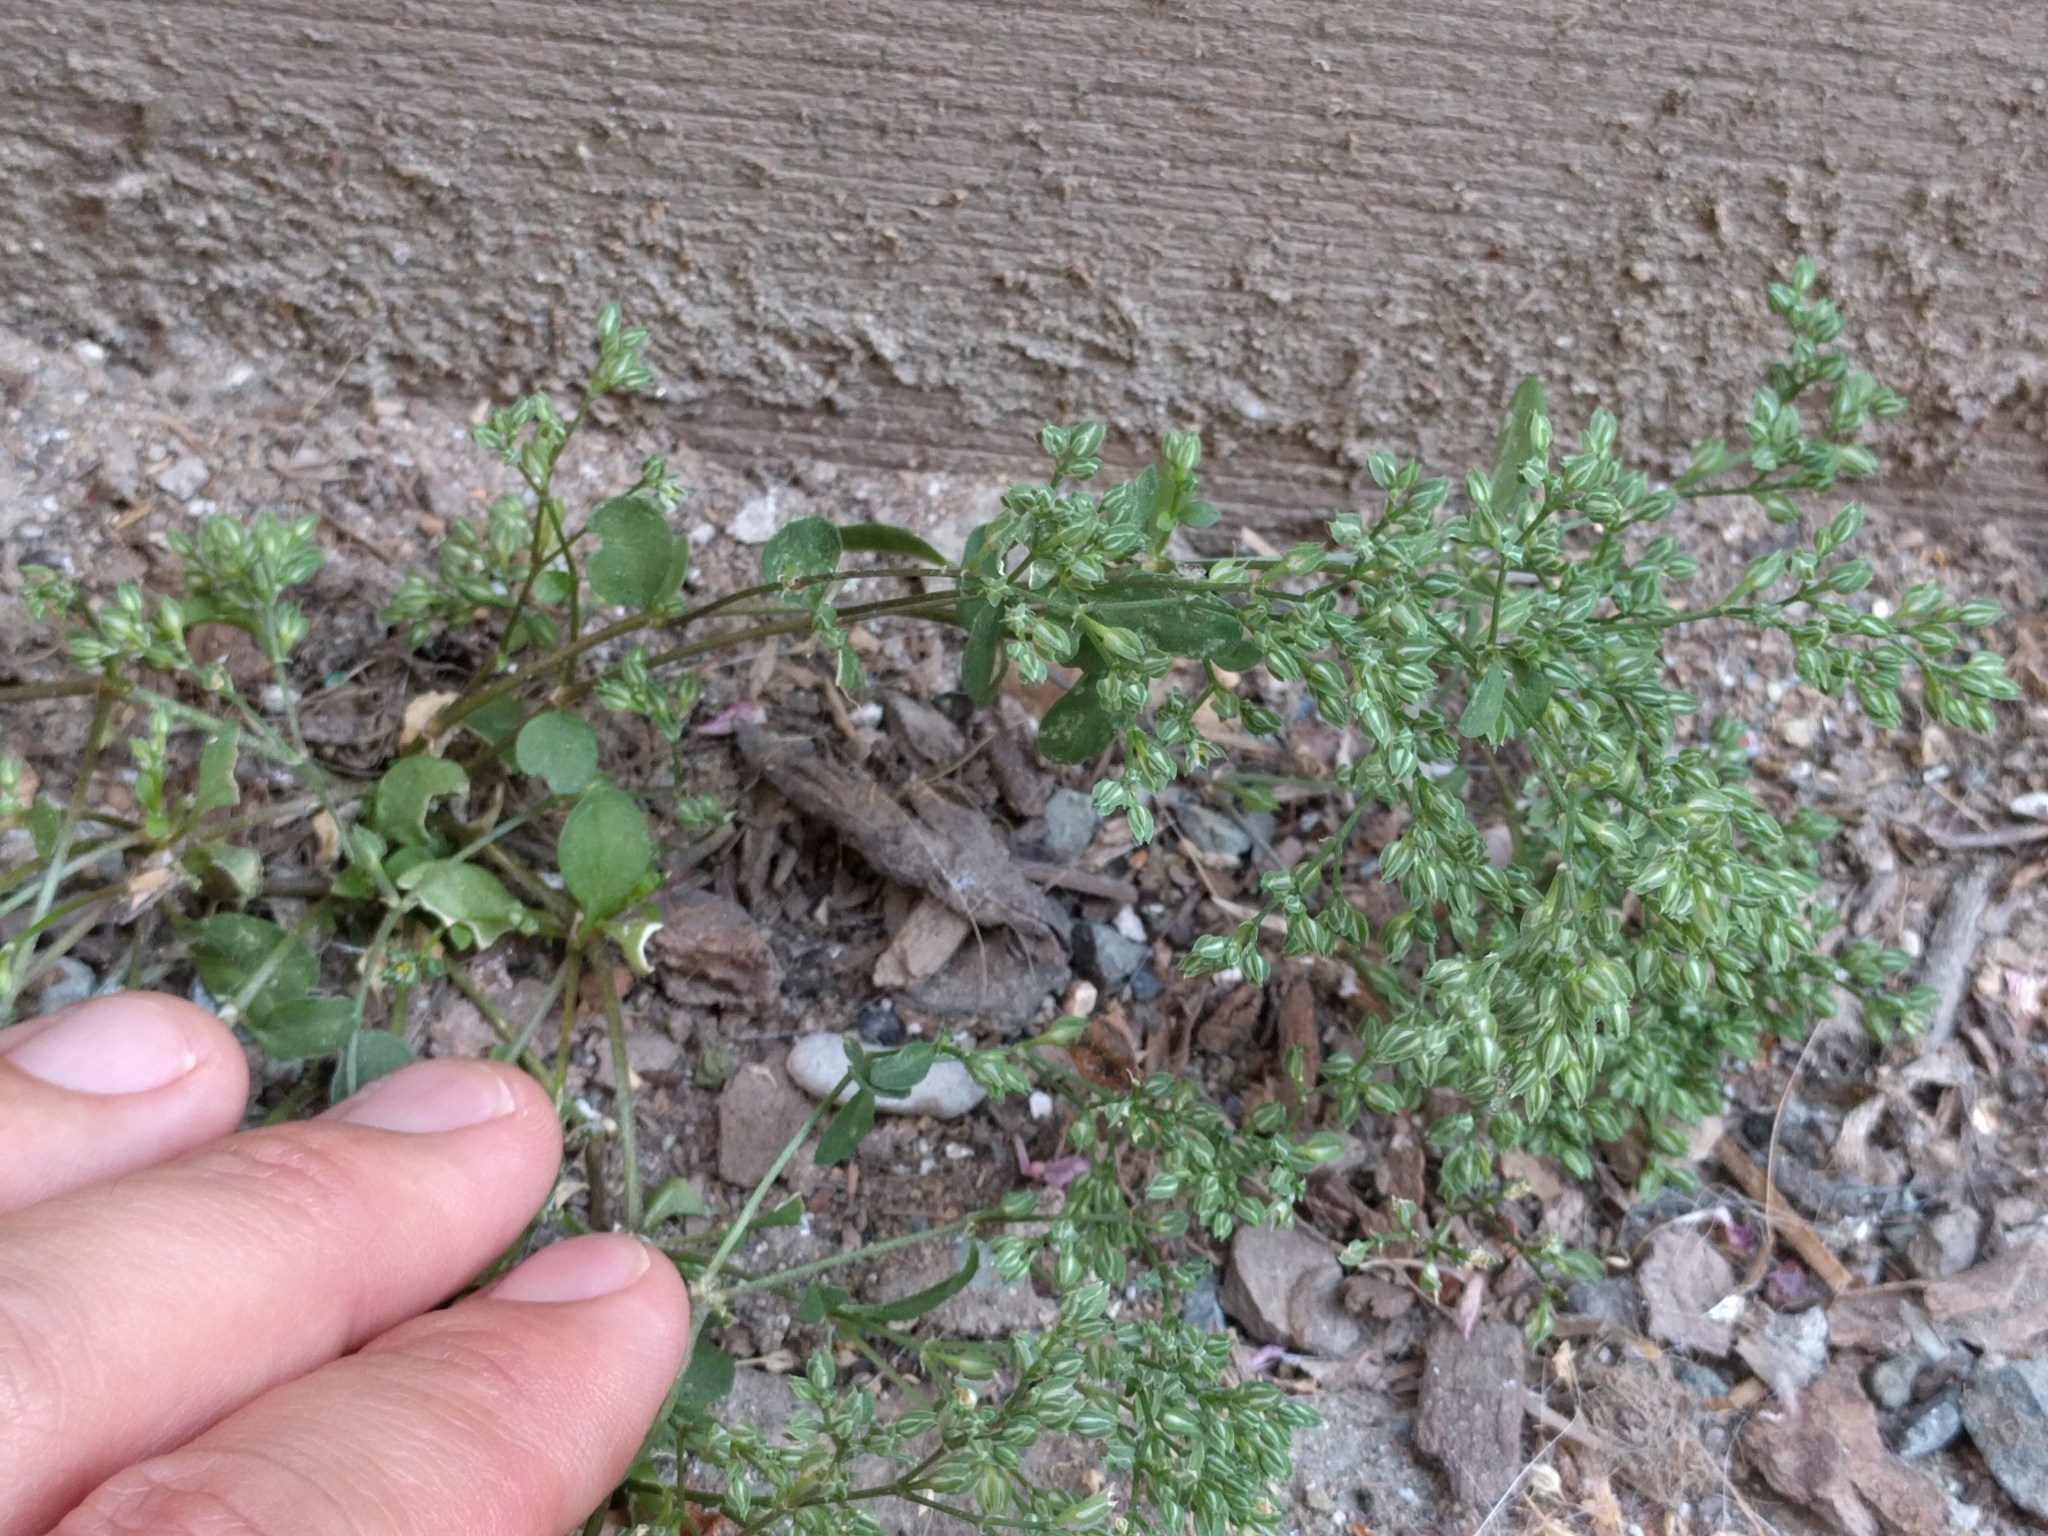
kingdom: Plantae
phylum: Tracheophyta
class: Magnoliopsida
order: Caryophyllales
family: Caryophyllaceae
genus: Polycarpon
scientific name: Polycarpon tetraphyllum
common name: Four-leaved all-seed
